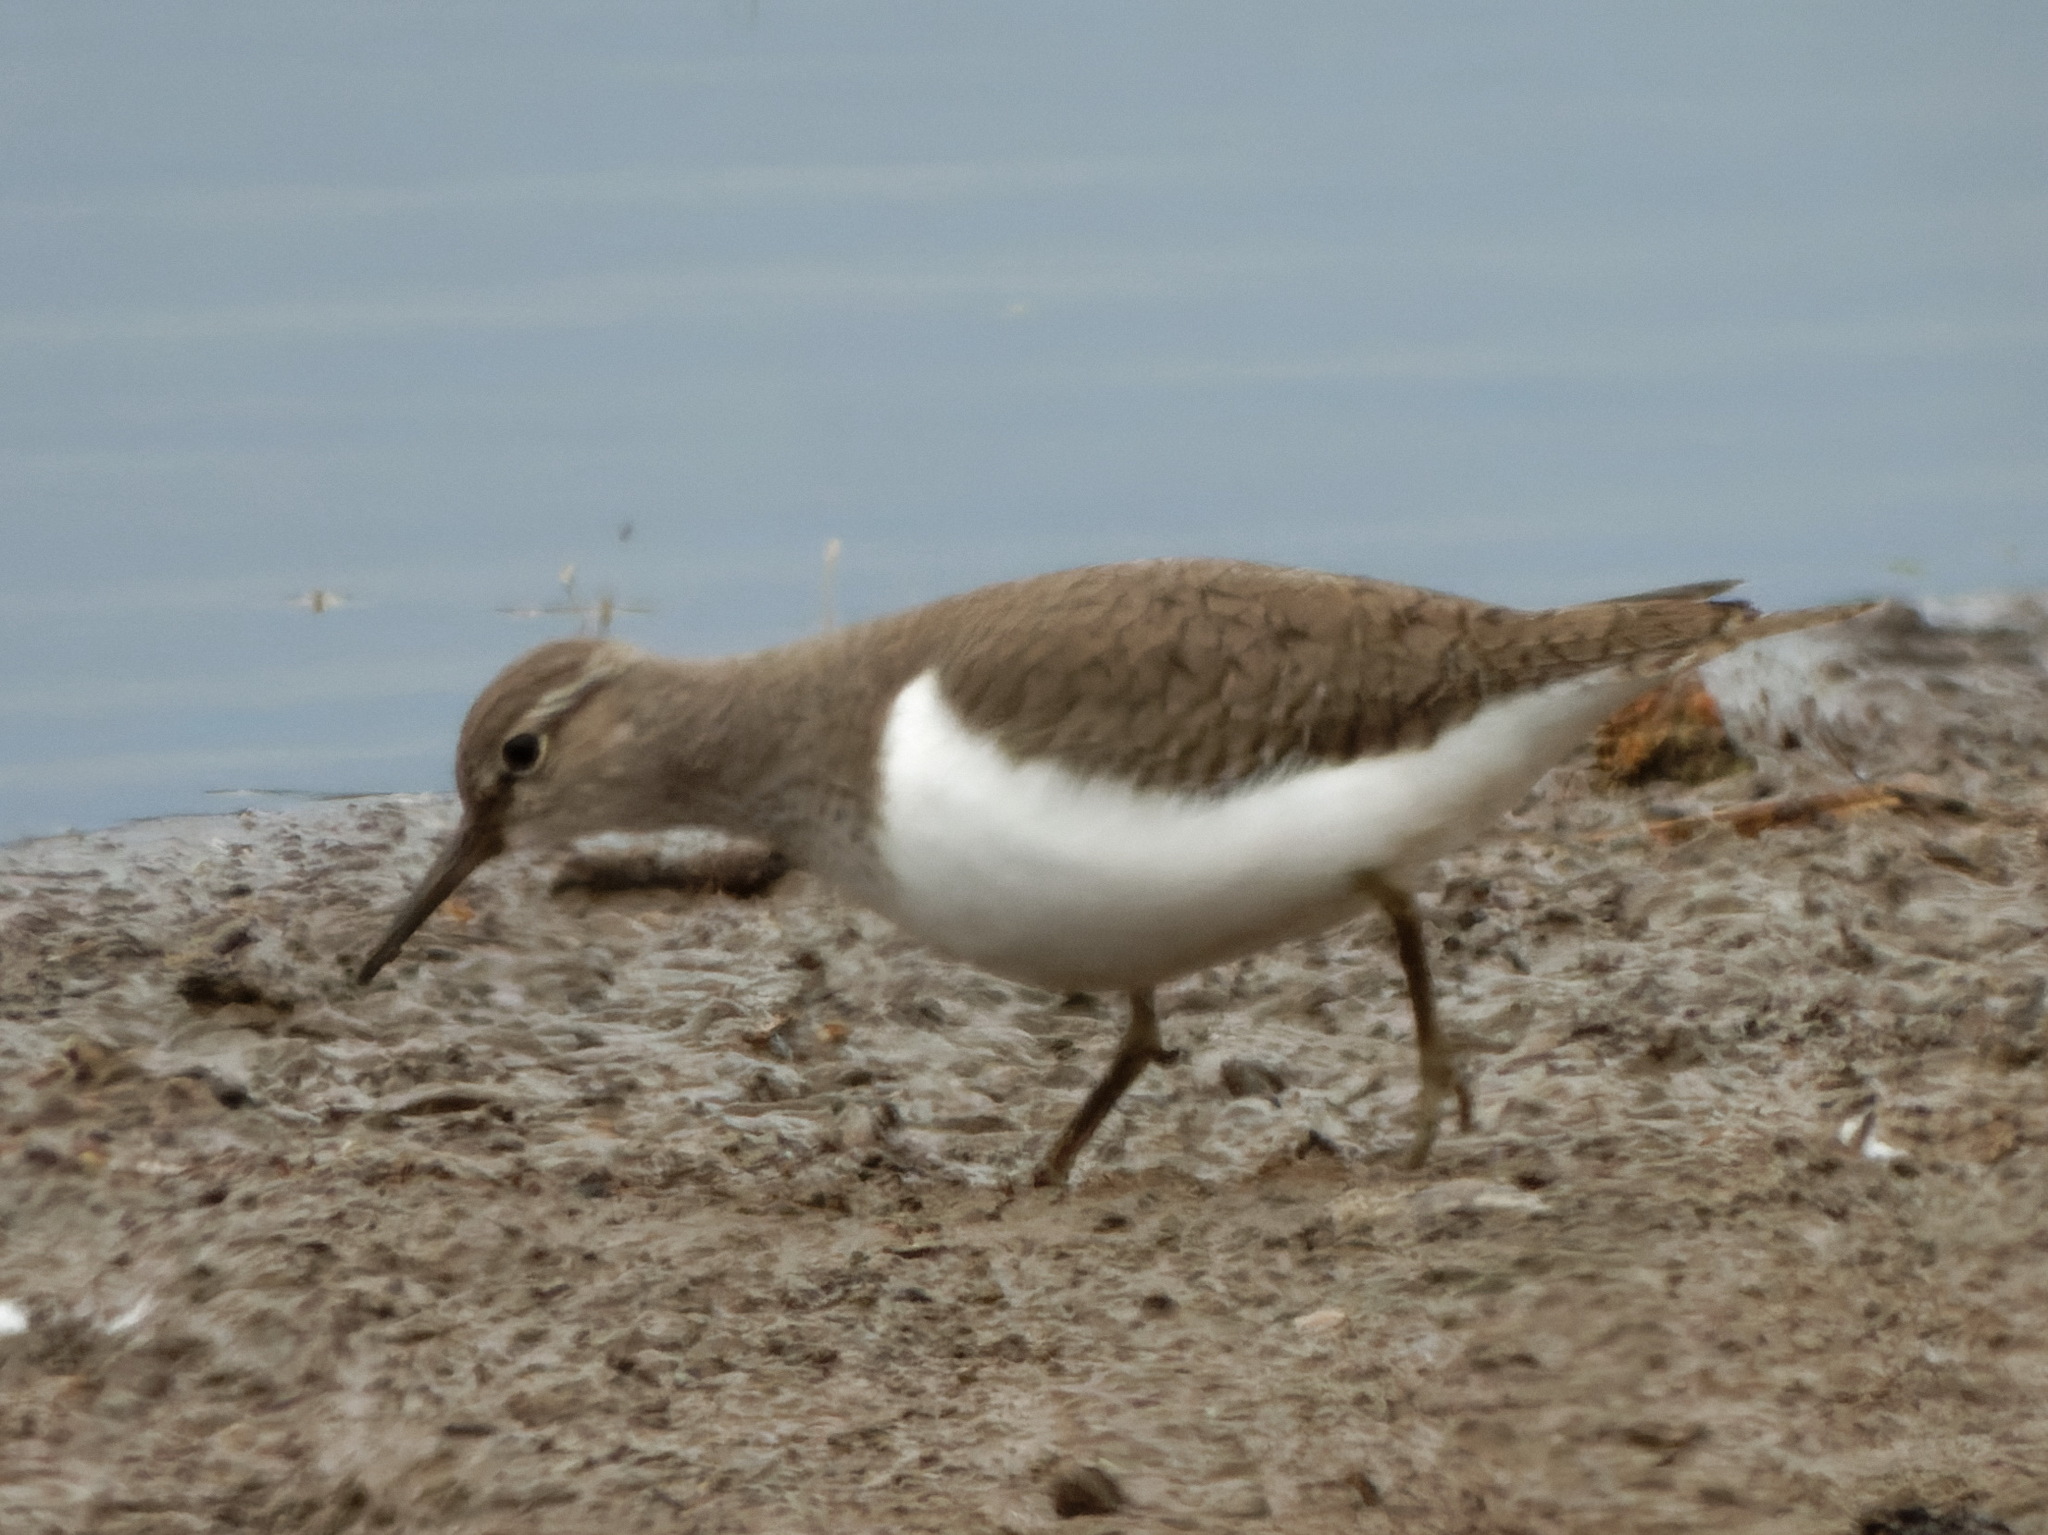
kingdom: Animalia
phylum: Chordata
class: Aves
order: Charadriiformes
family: Scolopacidae
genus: Actitis
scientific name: Actitis hypoleucos
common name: Common sandpiper
